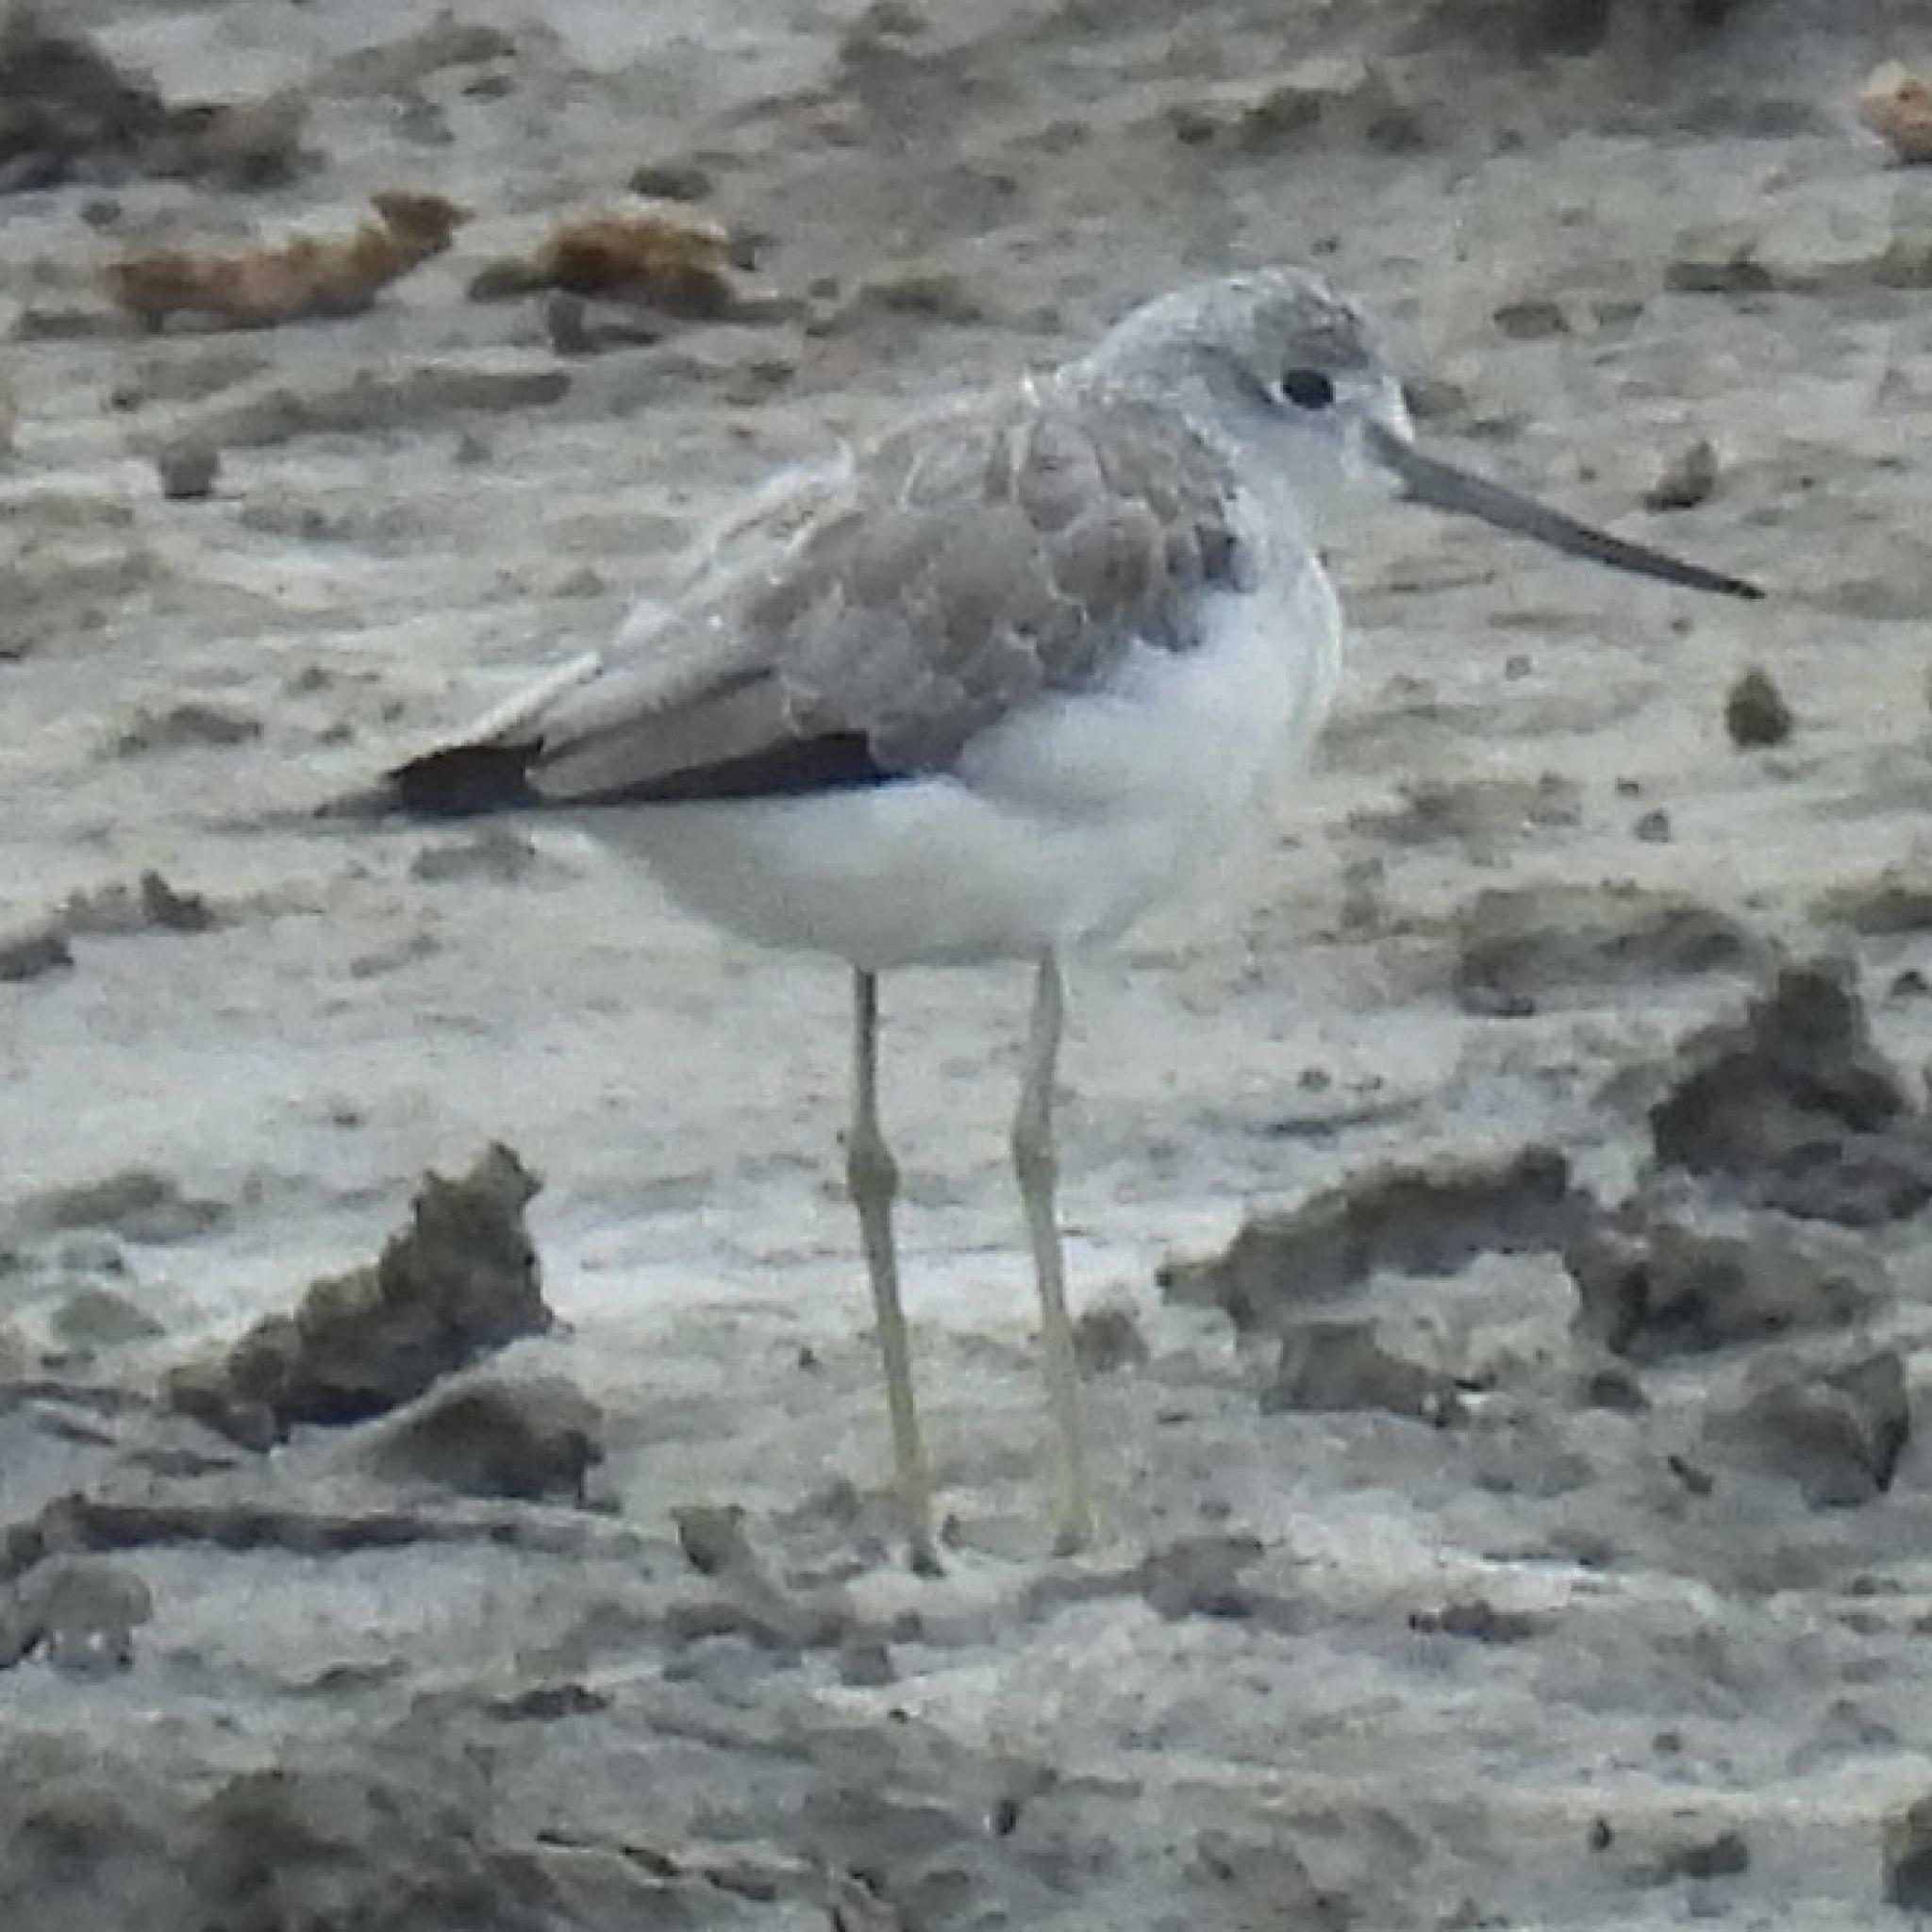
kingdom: Animalia
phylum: Chordata
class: Aves
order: Charadriiformes
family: Scolopacidae
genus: Tringa
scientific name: Tringa nebularia
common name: Common greenshank
